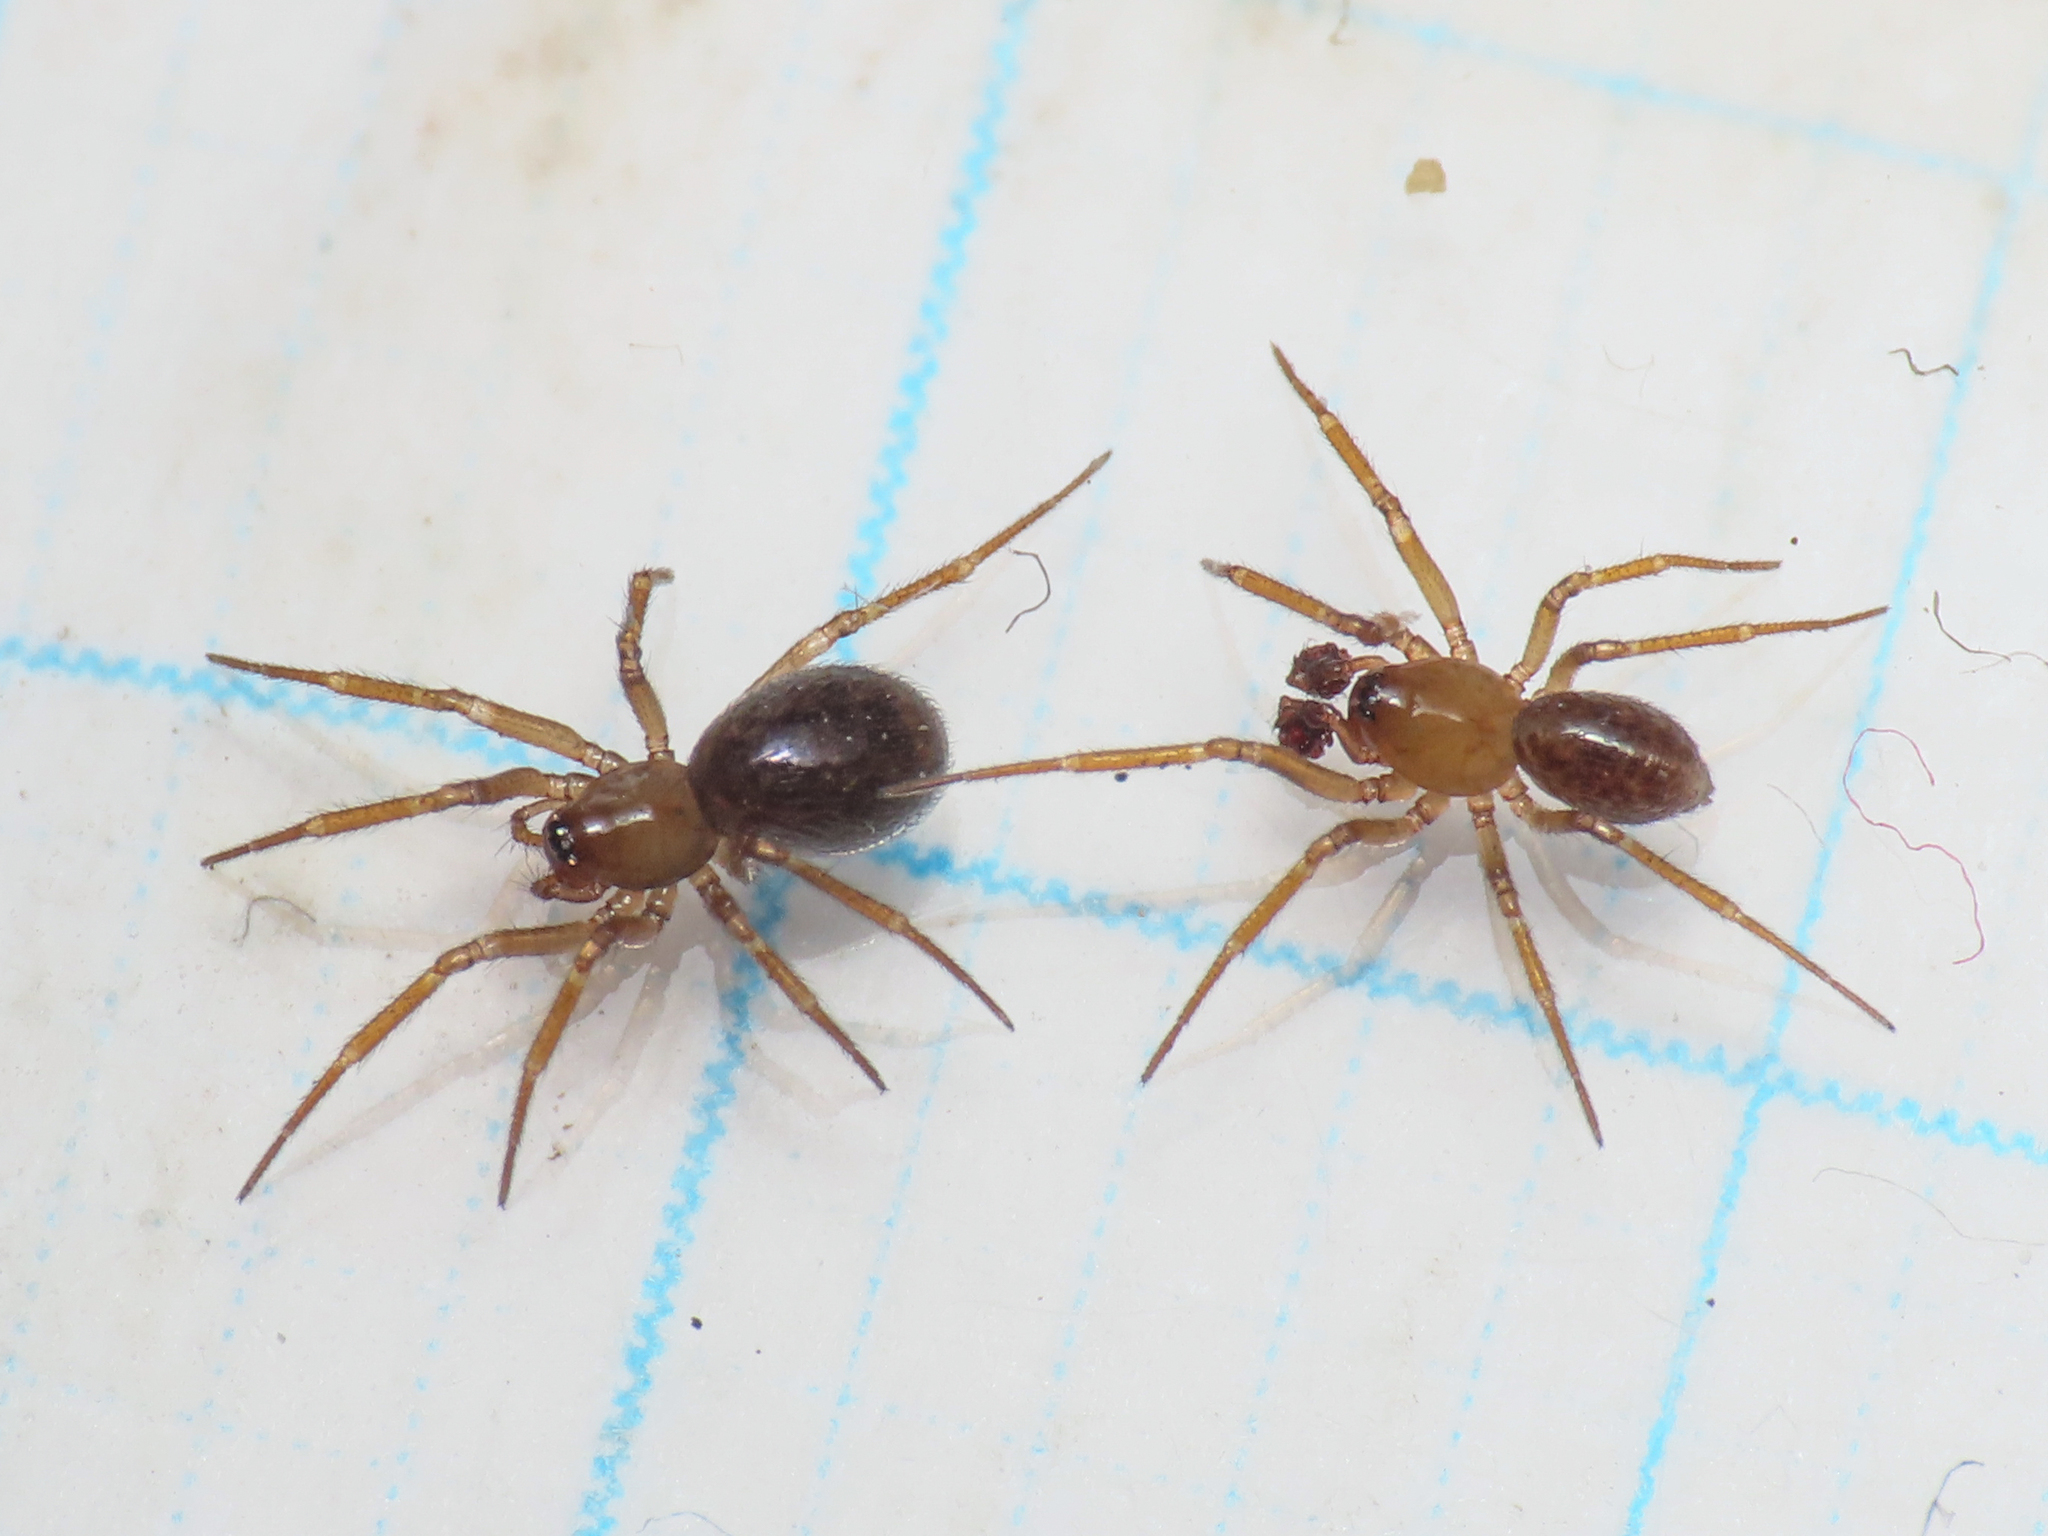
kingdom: Animalia
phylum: Arthropoda
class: Arachnida
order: Araneae
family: Linyphiidae
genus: Centromerus
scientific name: Centromerus tongiorgii
